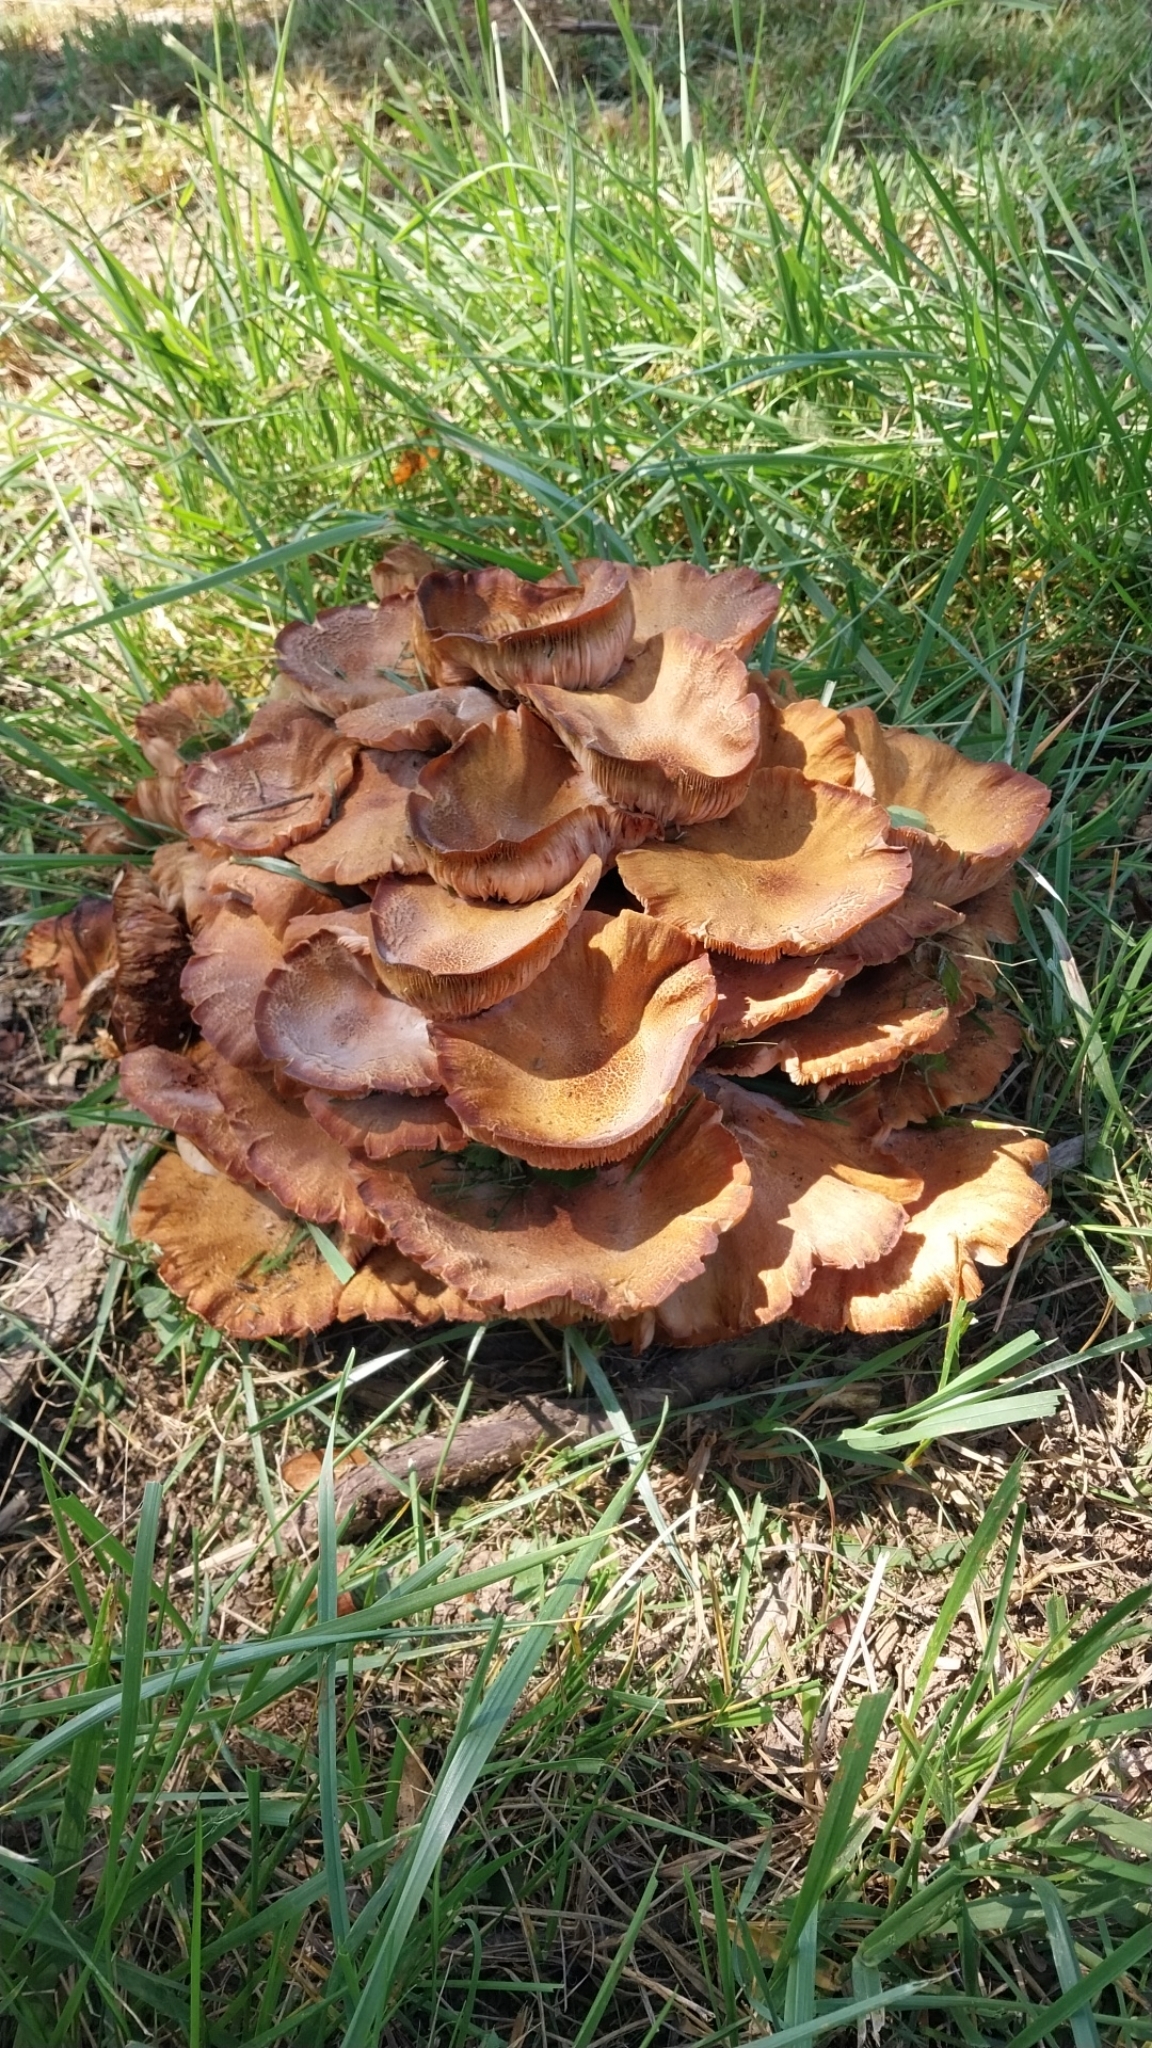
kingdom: Fungi
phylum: Basidiomycota
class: Agaricomycetes
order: Agaricales
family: Physalacriaceae
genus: Desarmillaria
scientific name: Desarmillaria caespitosa
